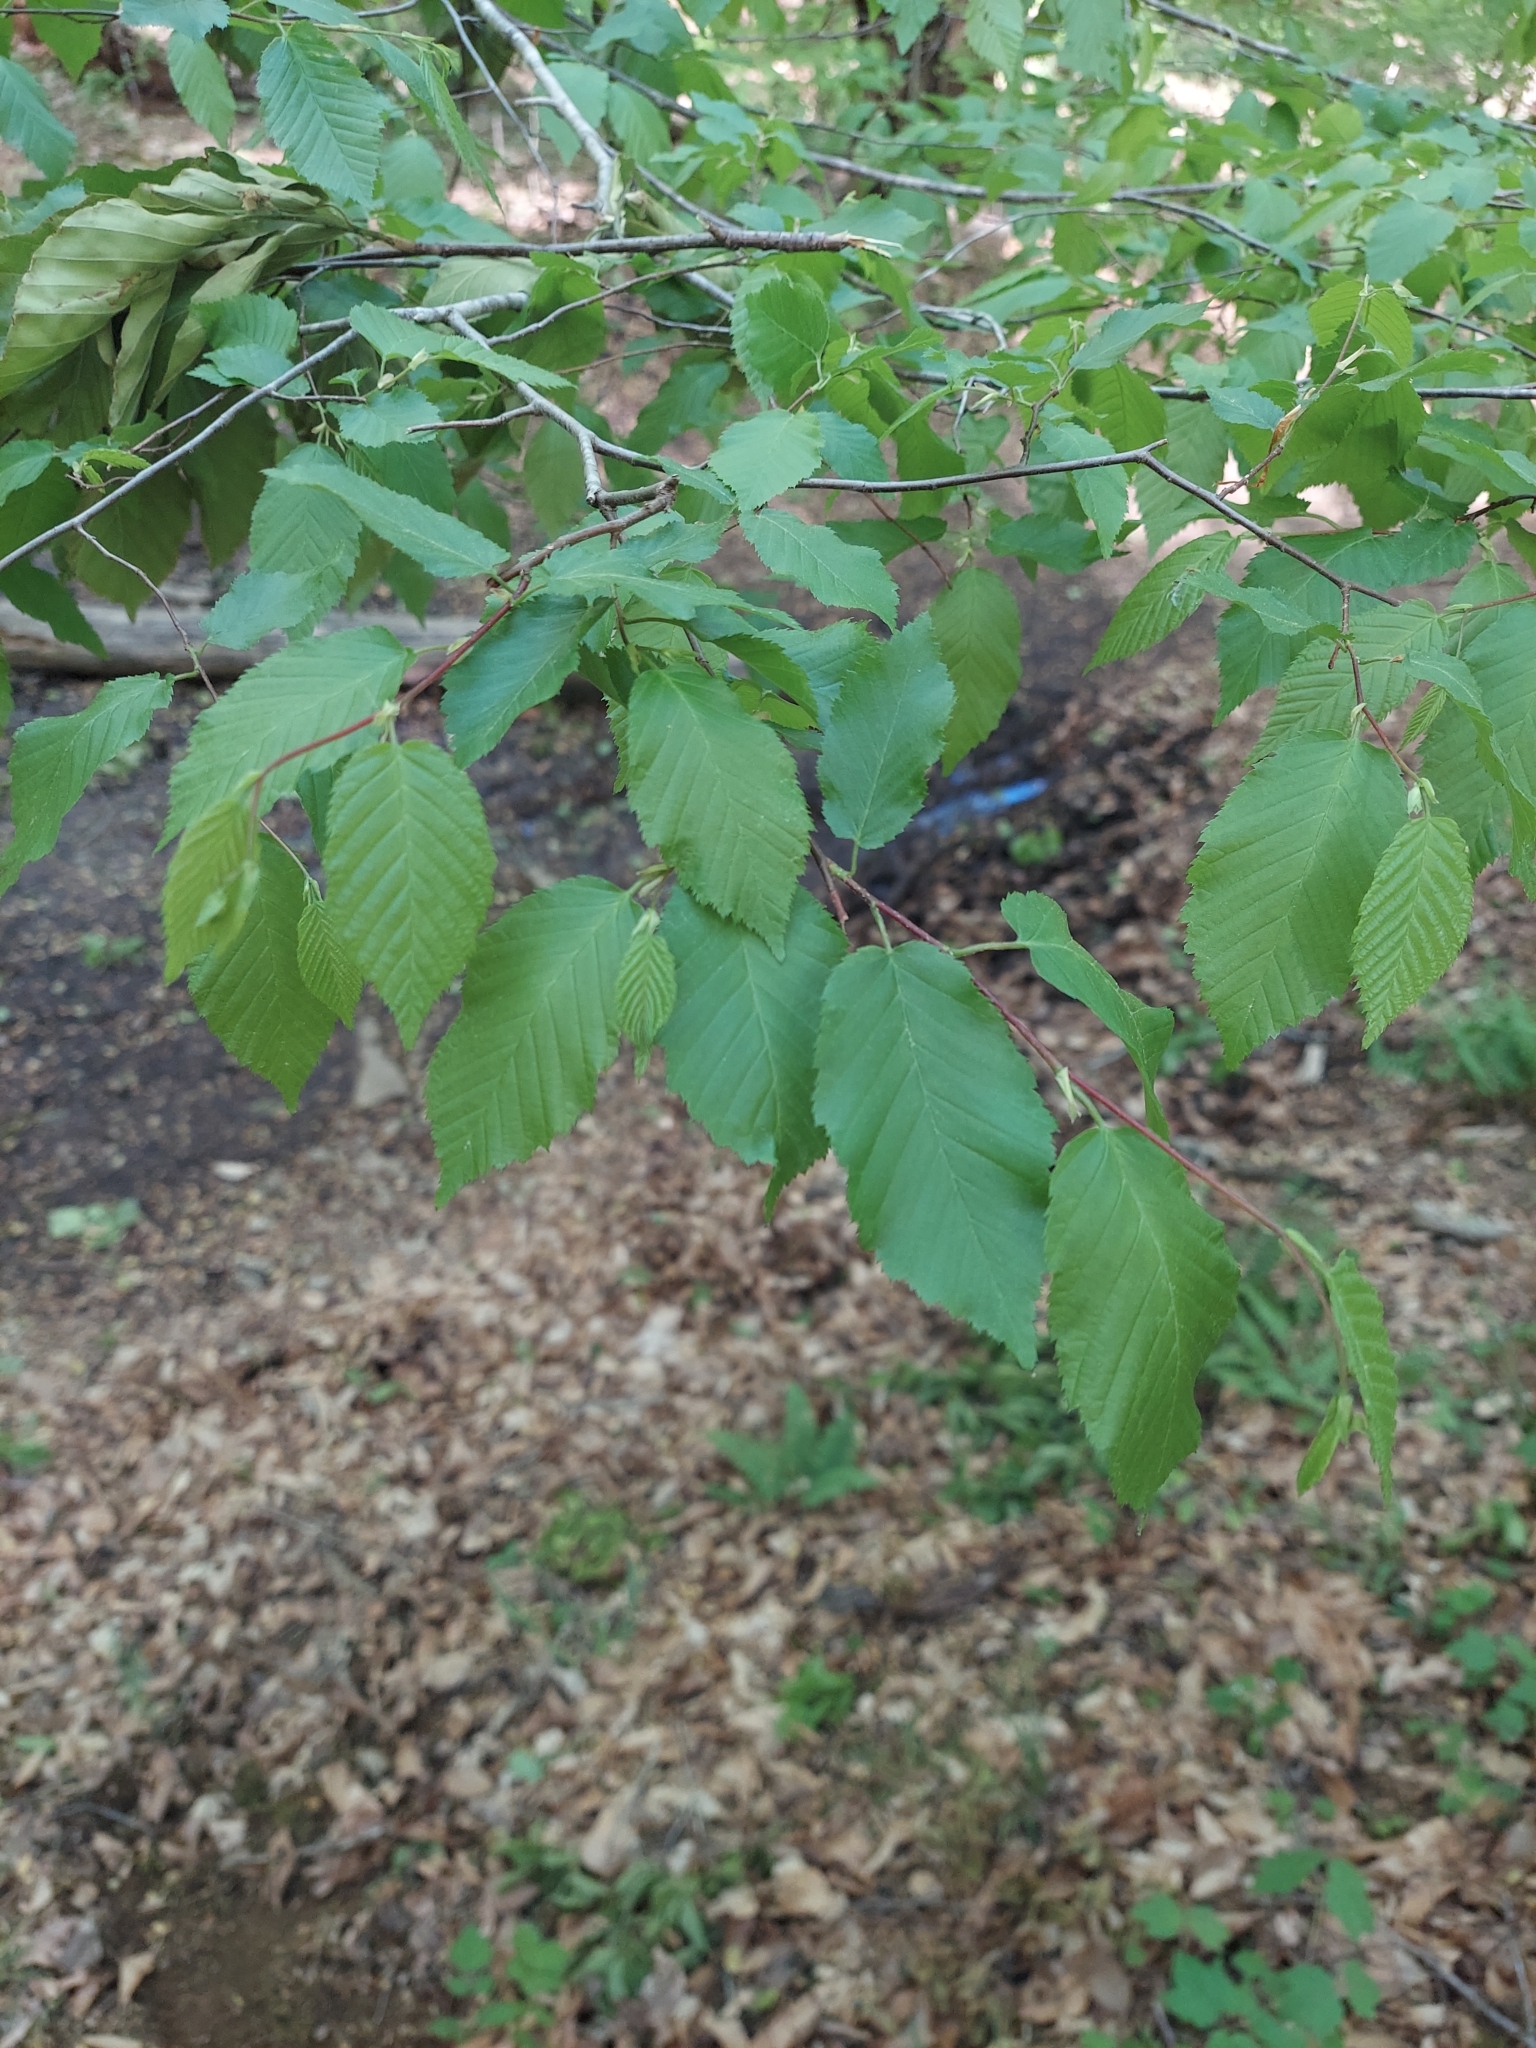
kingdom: Plantae
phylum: Tracheophyta
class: Magnoliopsida
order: Fagales
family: Betulaceae
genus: Carpinus
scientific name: Carpinus caroliniana
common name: American hornbeam
